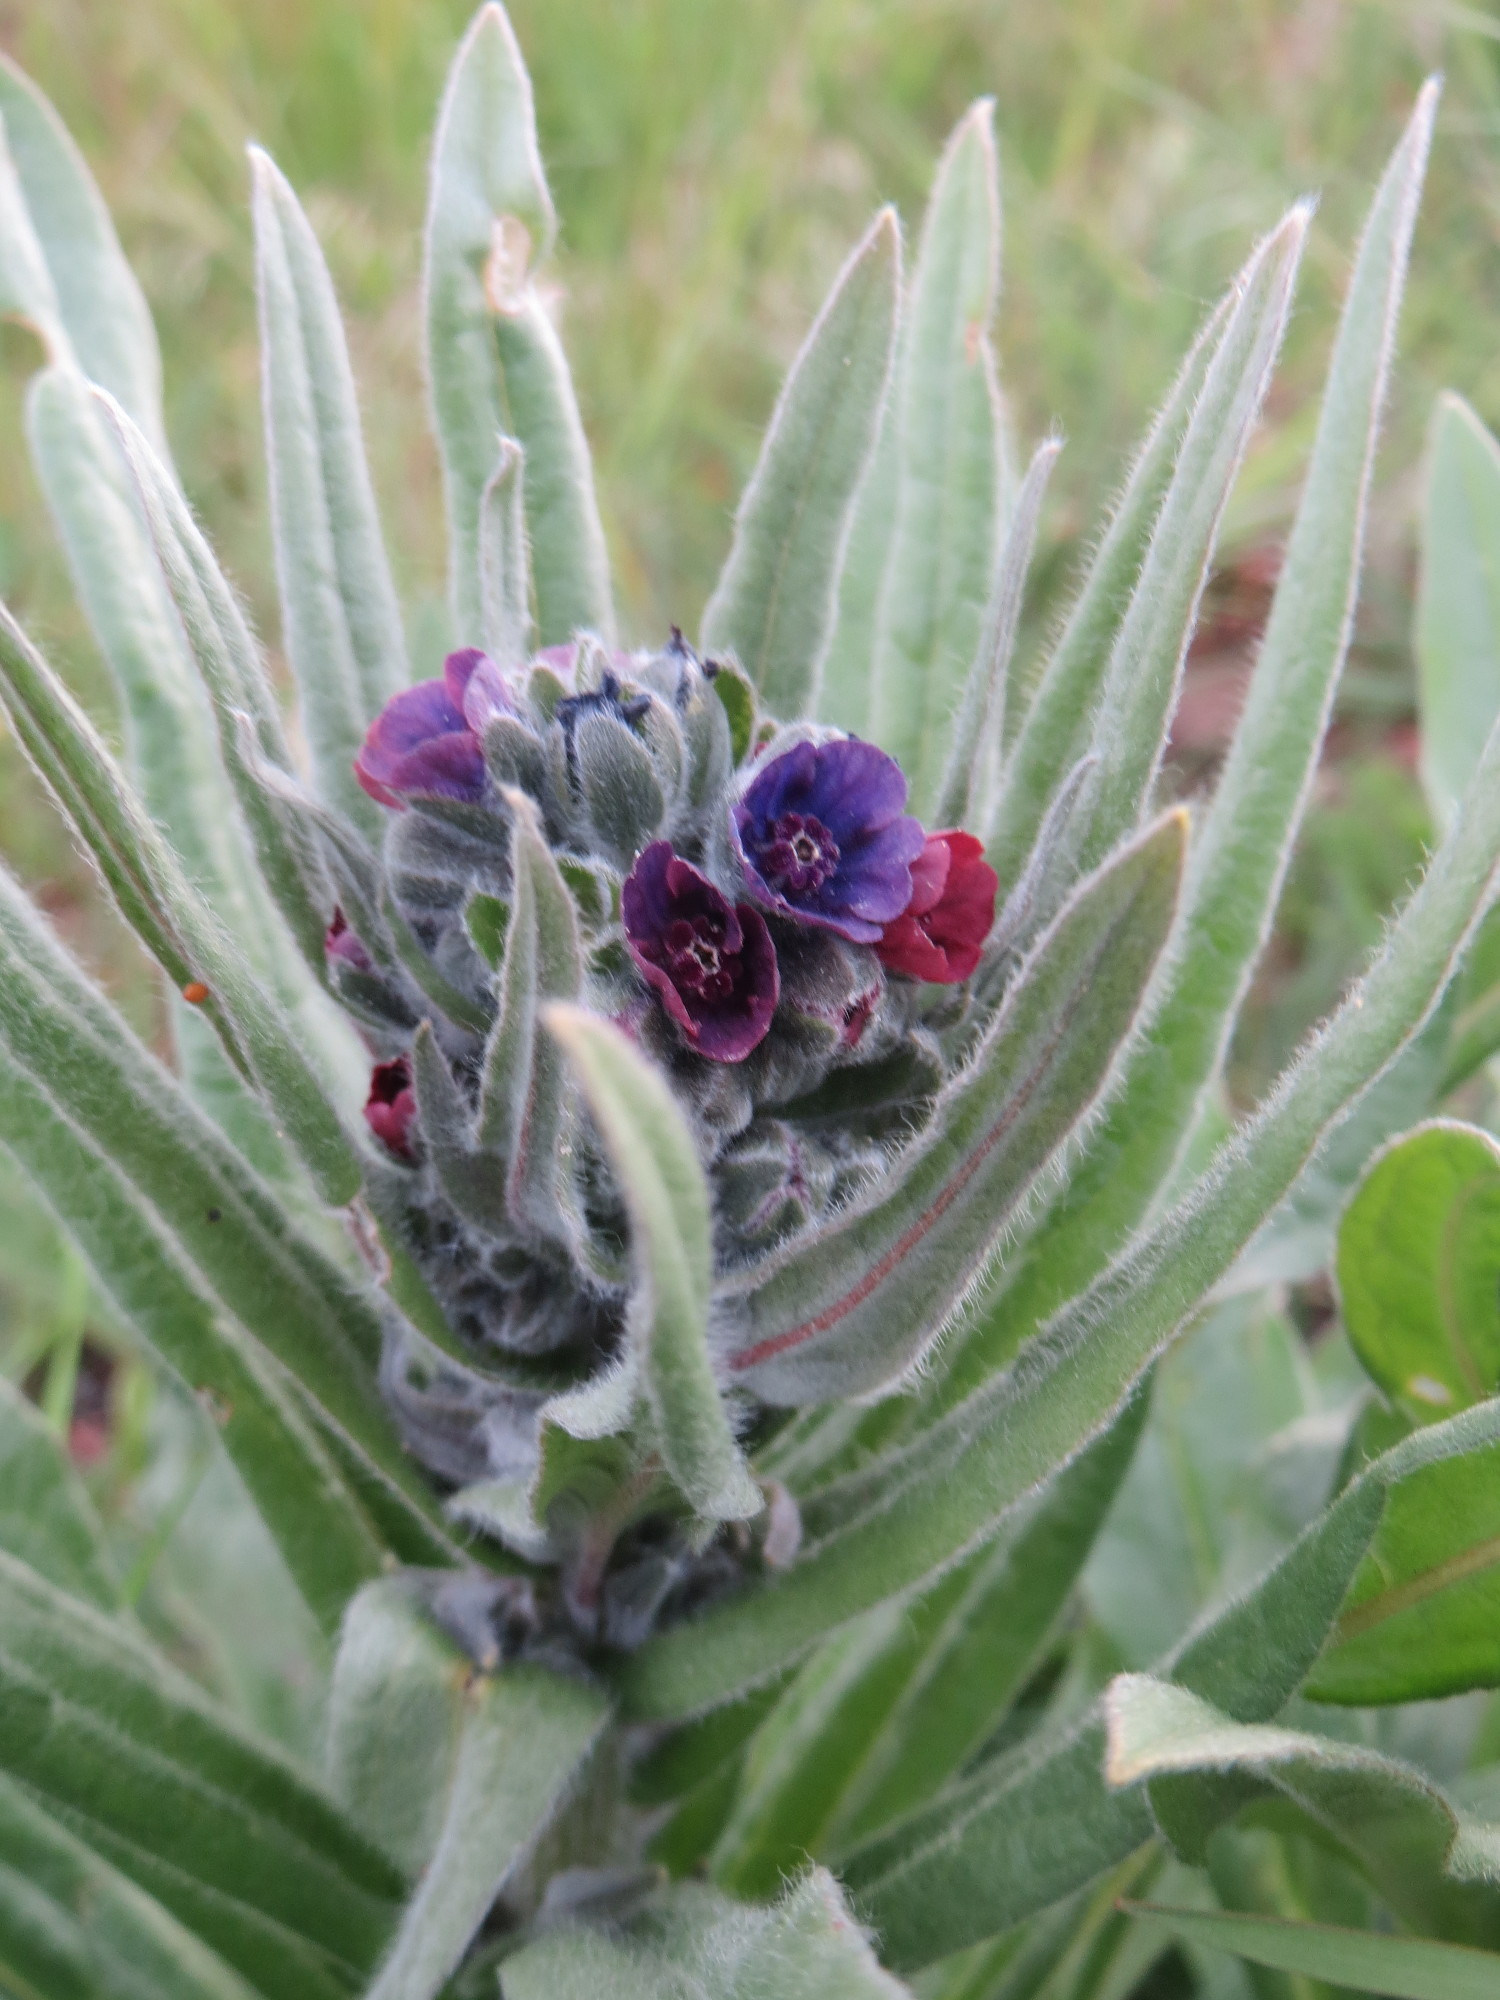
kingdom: Plantae
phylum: Tracheophyta
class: Magnoliopsida
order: Boraginales
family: Boraginaceae
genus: Cynoglossum
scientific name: Cynoglossum officinale
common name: Hound's-tongue
